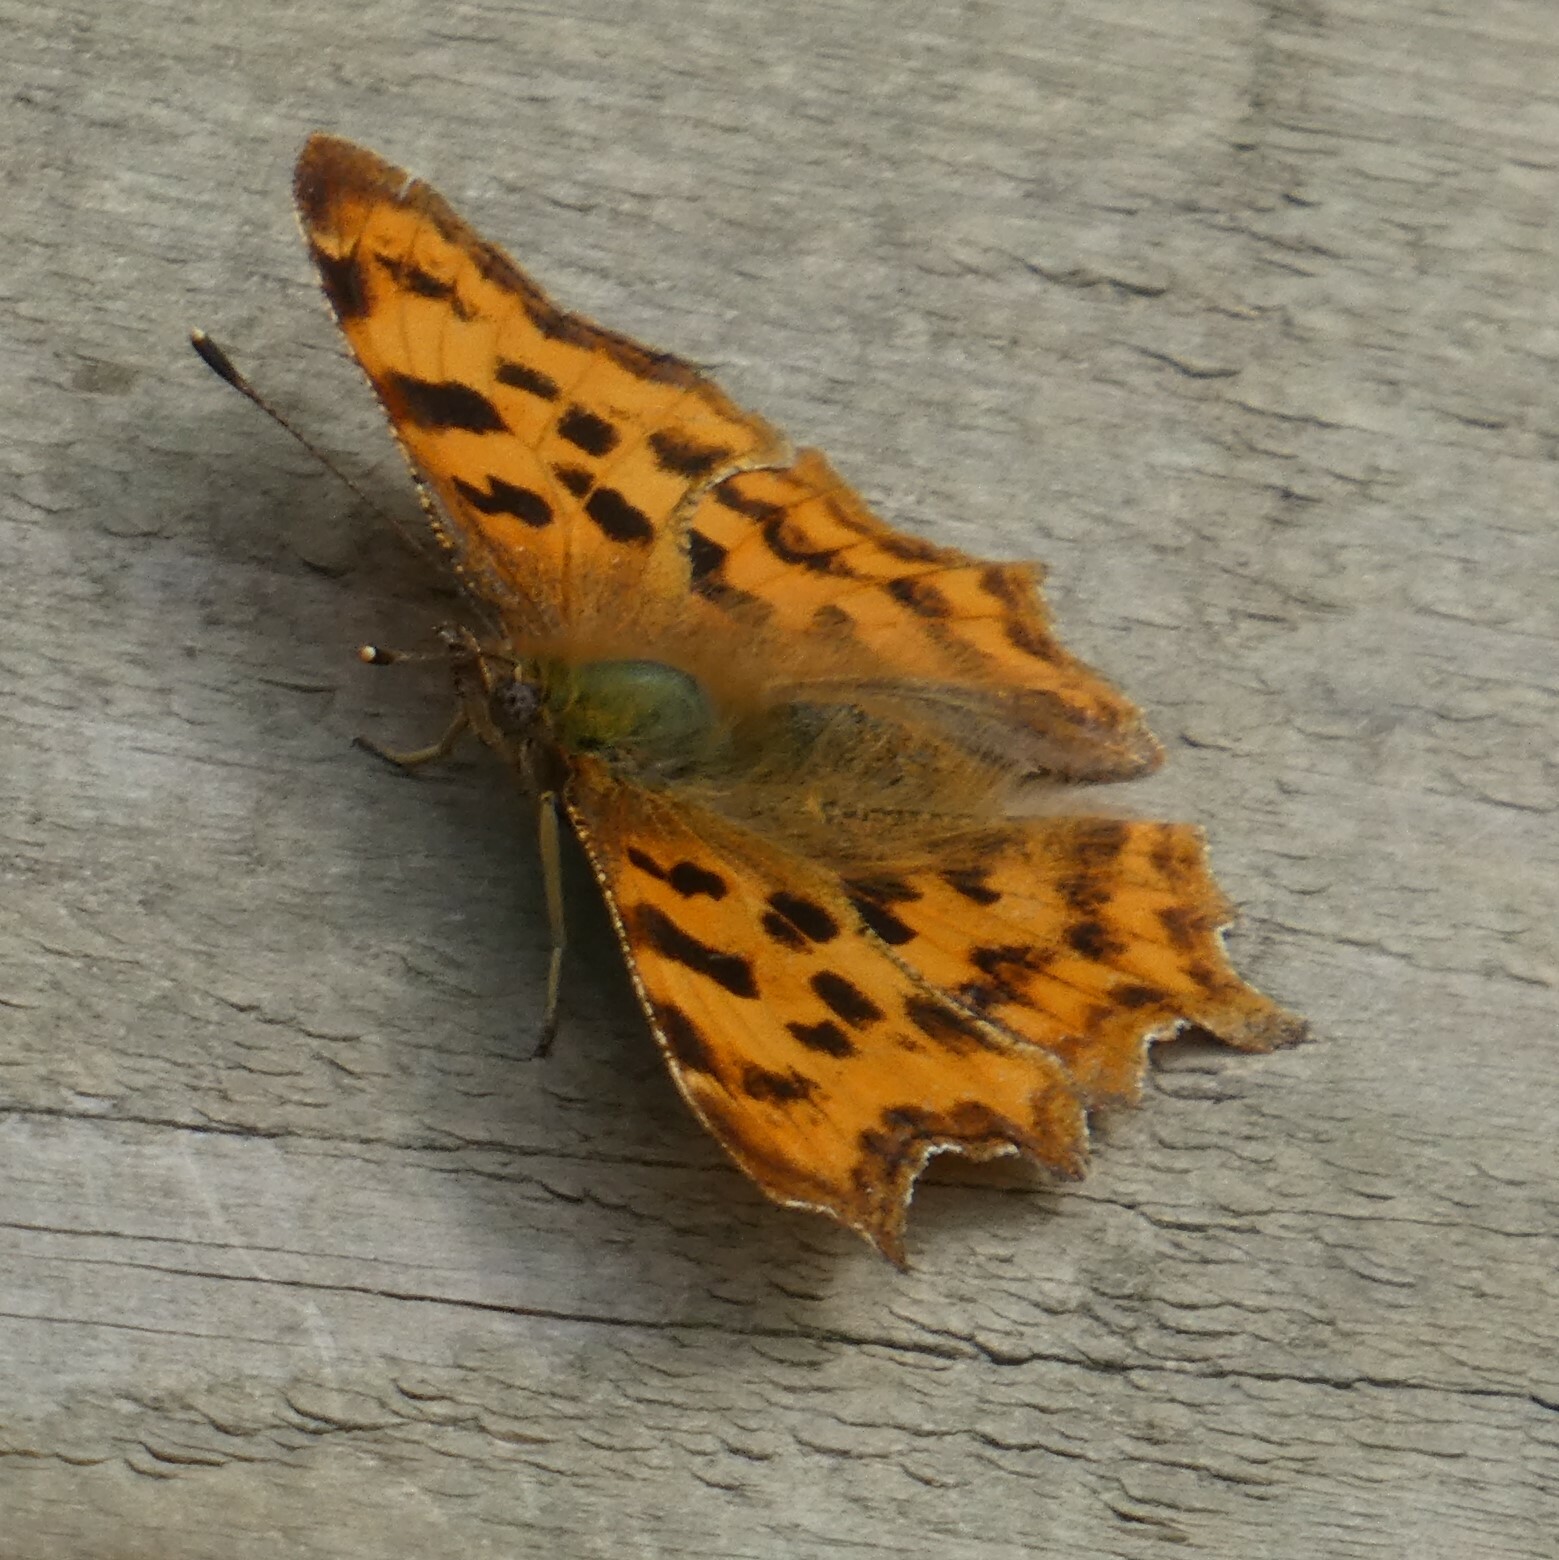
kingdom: Animalia
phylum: Arthropoda
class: Insecta
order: Lepidoptera
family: Nymphalidae
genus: Polygonia
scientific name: Polygonia c-album
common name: Comma
